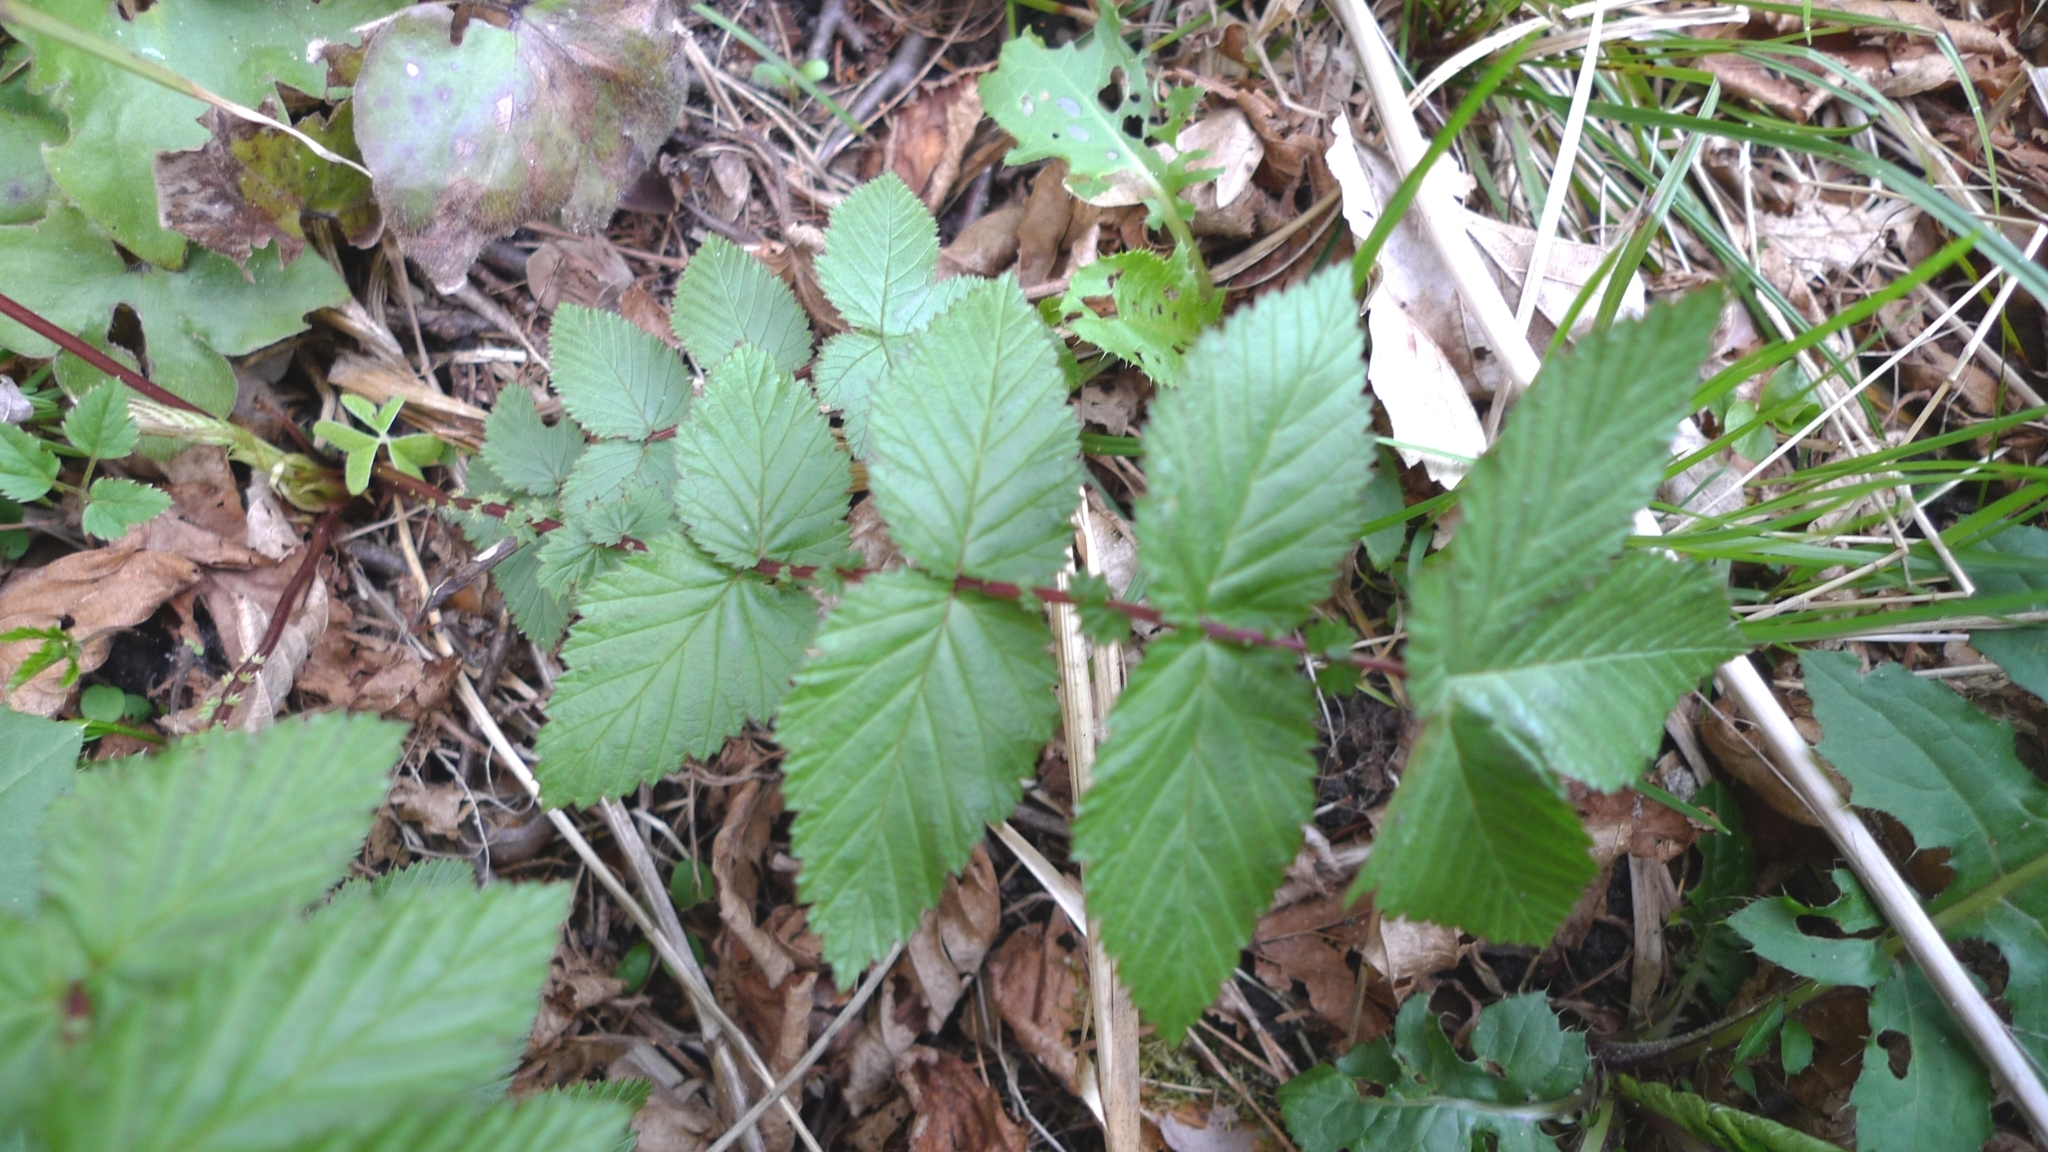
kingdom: Plantae
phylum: Tracheophyta
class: Magnoliopsida
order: Rosales
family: Rosaceae
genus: Filipendula
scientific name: Filipendula ulmaria
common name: Meadowsweet
